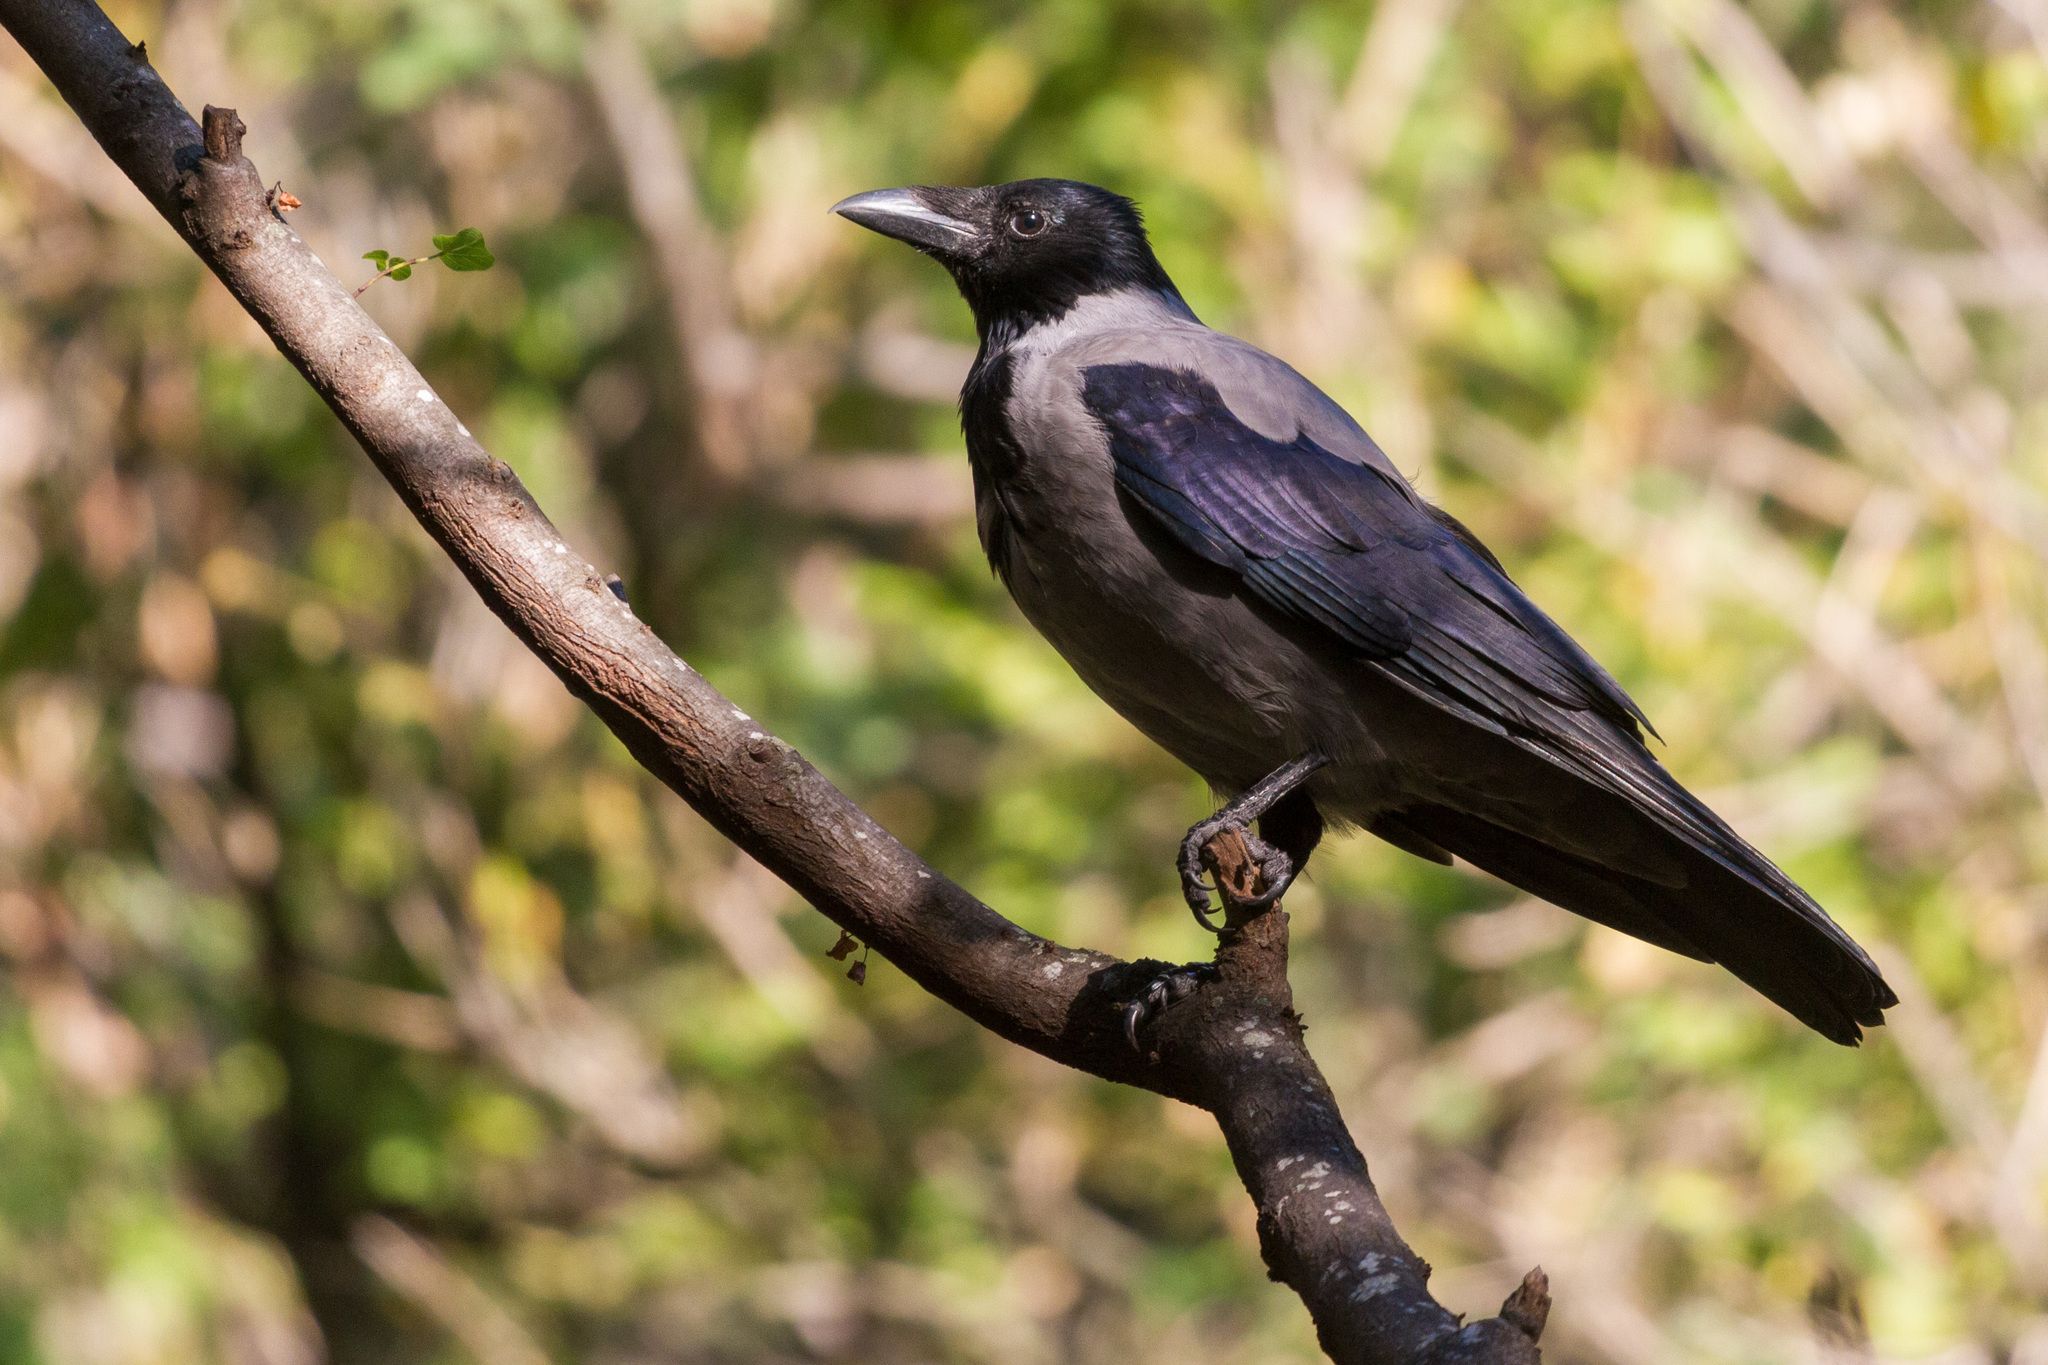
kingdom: Animalia
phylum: Chordata
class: Aves
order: Passeriformes
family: Corvidae
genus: Corvus
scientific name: Corvus cornix
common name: Hooded crow
